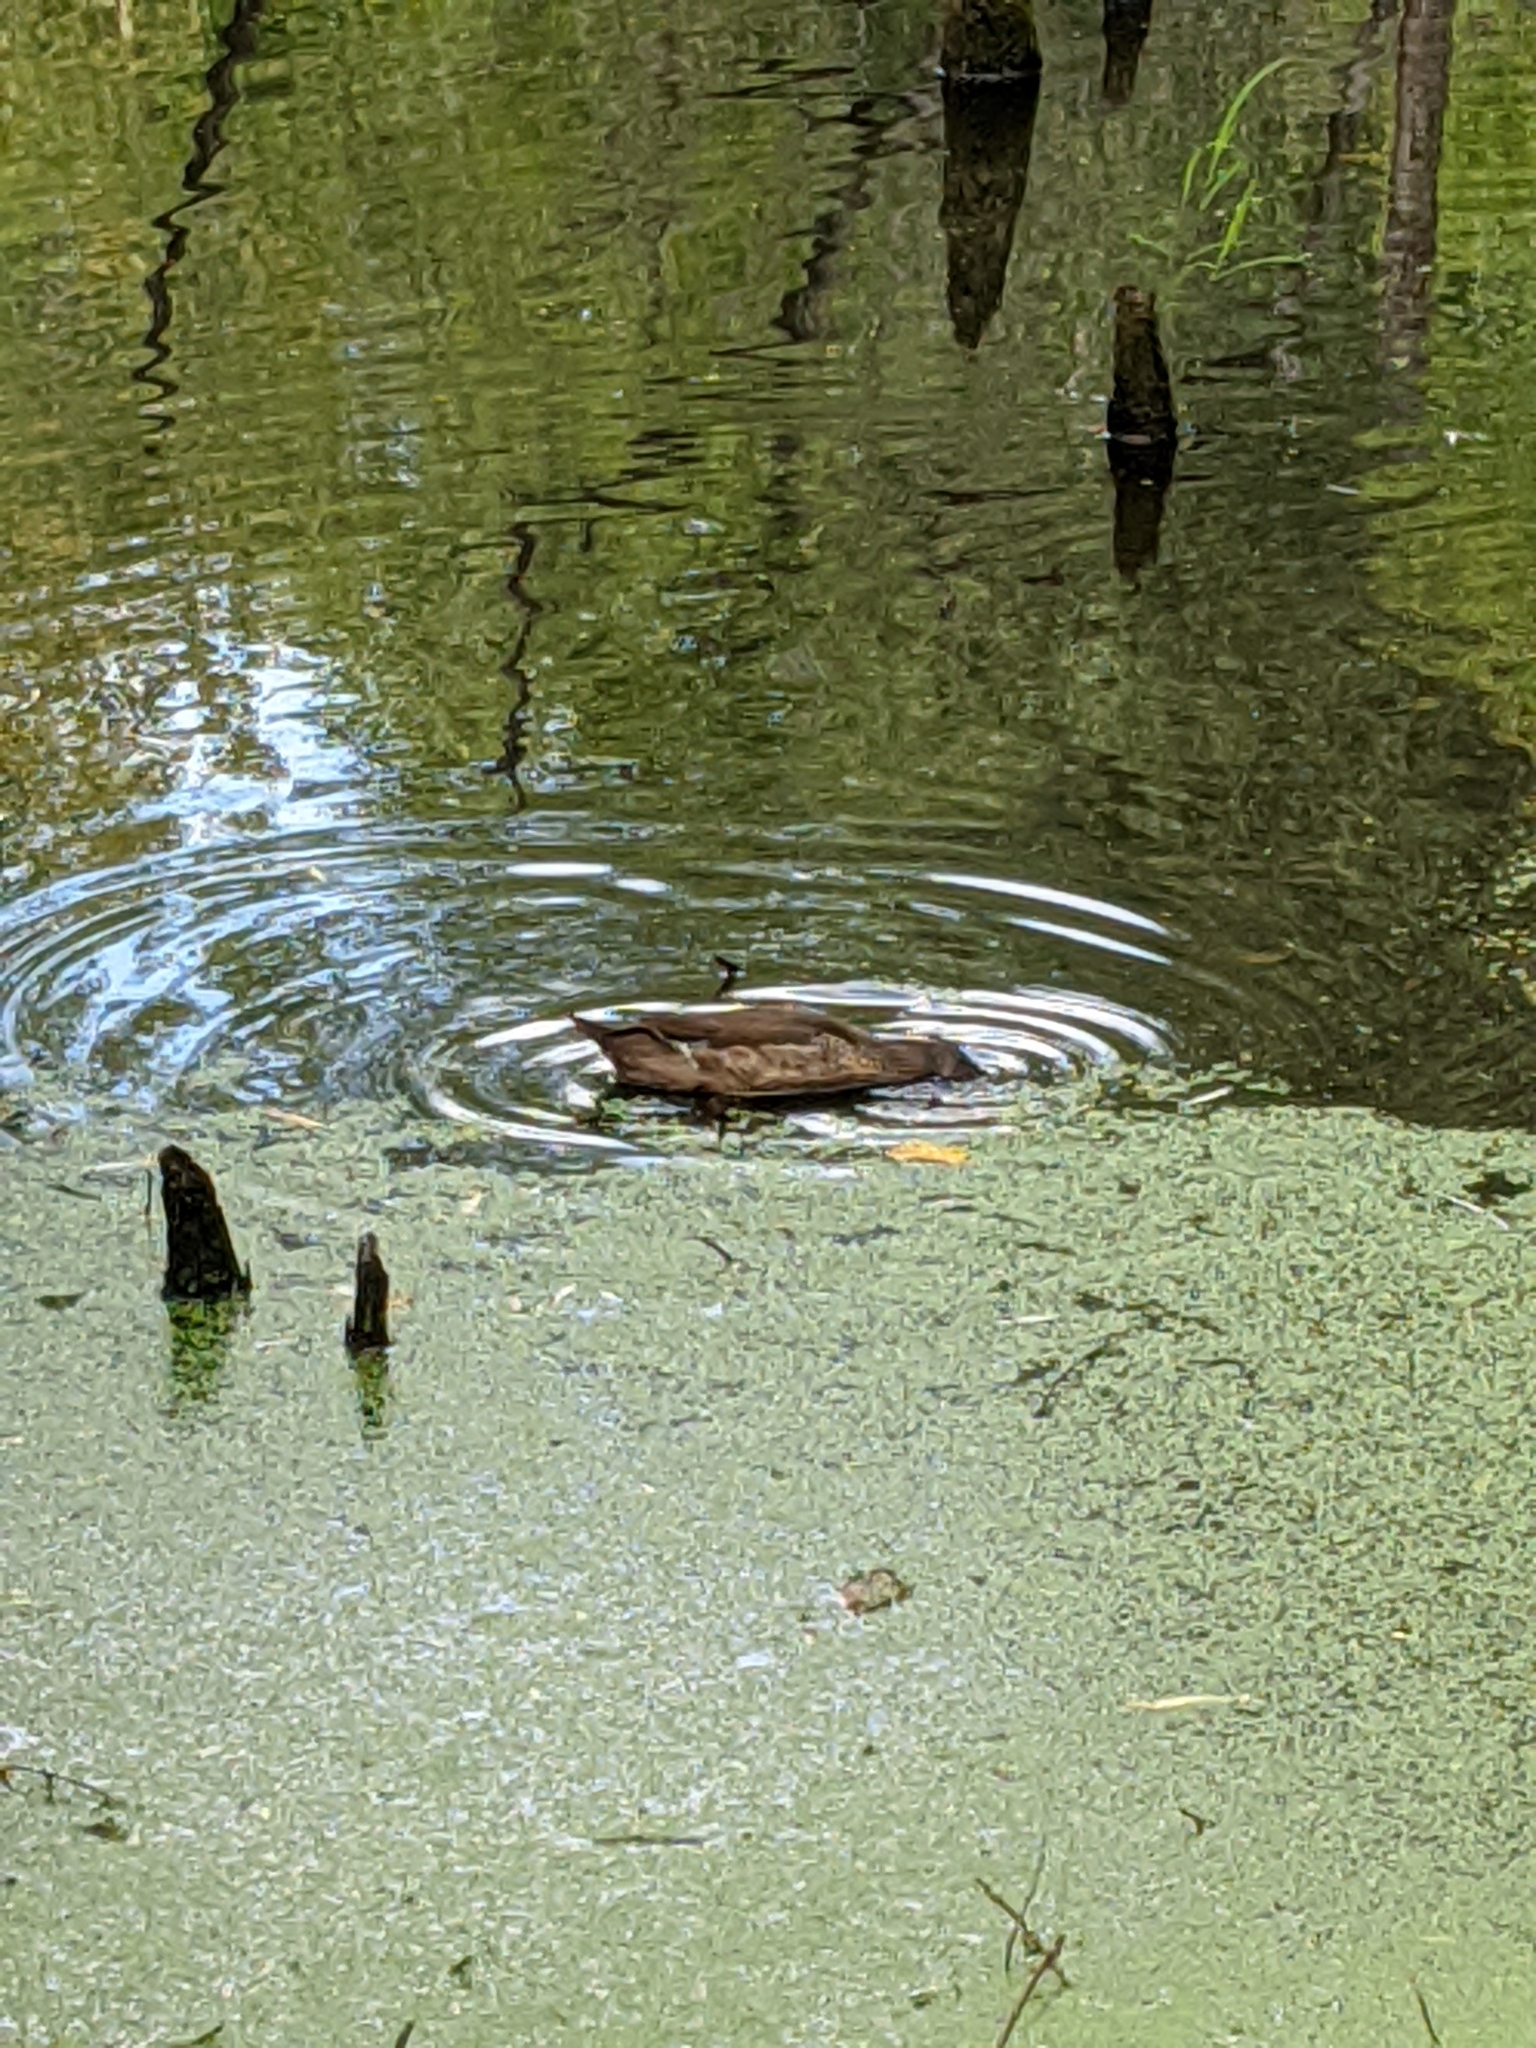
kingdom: Animalia
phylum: Chordata
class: Aves
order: Anseriformes
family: Anatidae
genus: Aix
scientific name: Aix sponsa
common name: Wood duck
